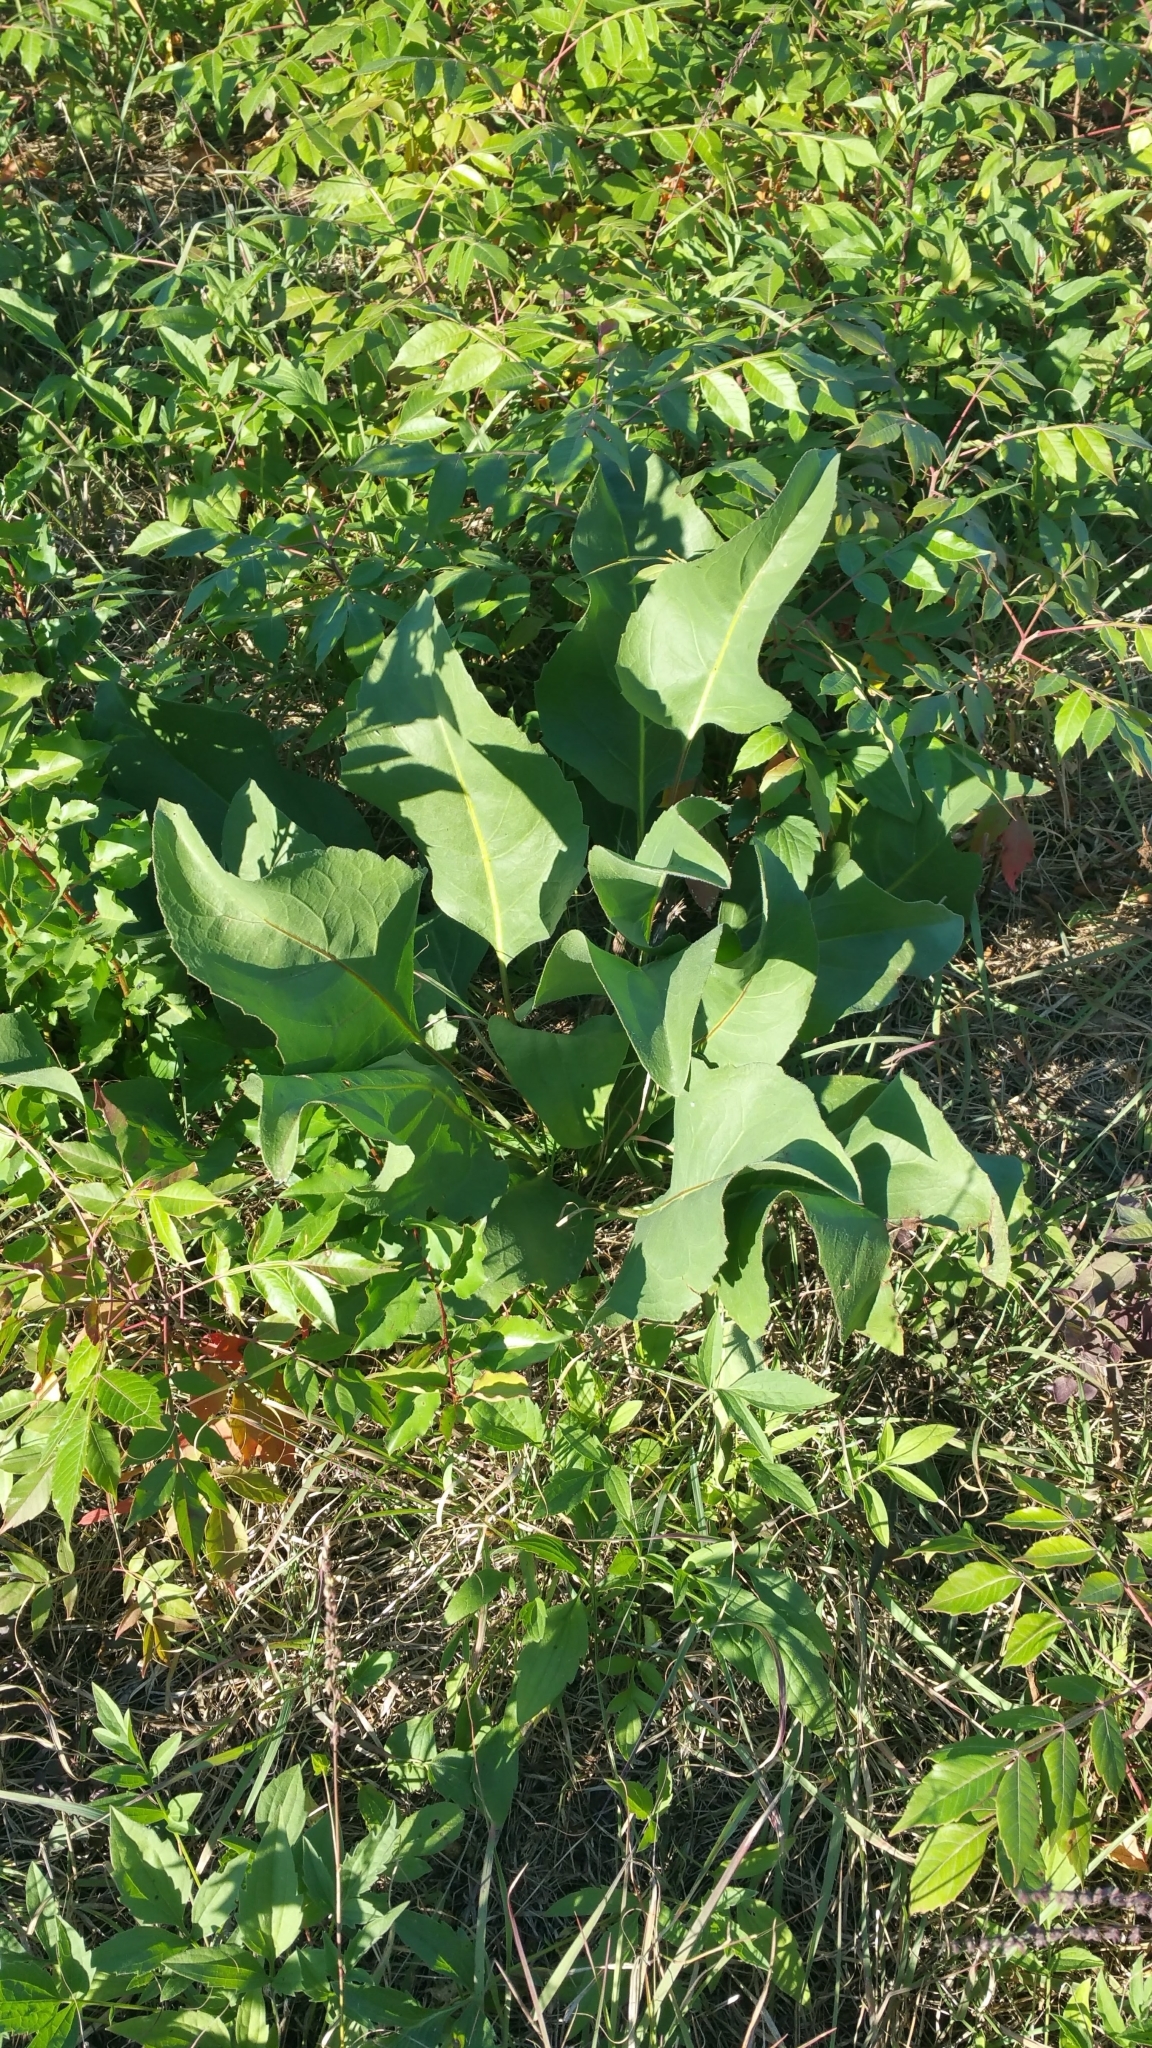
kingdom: Plantae
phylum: Tracheophyta
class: Magnoliopsida
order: Asterales
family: Asteraceae
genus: Silphium
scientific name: Silphium terebinthinaceum
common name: Basal-leaf rosinweed
